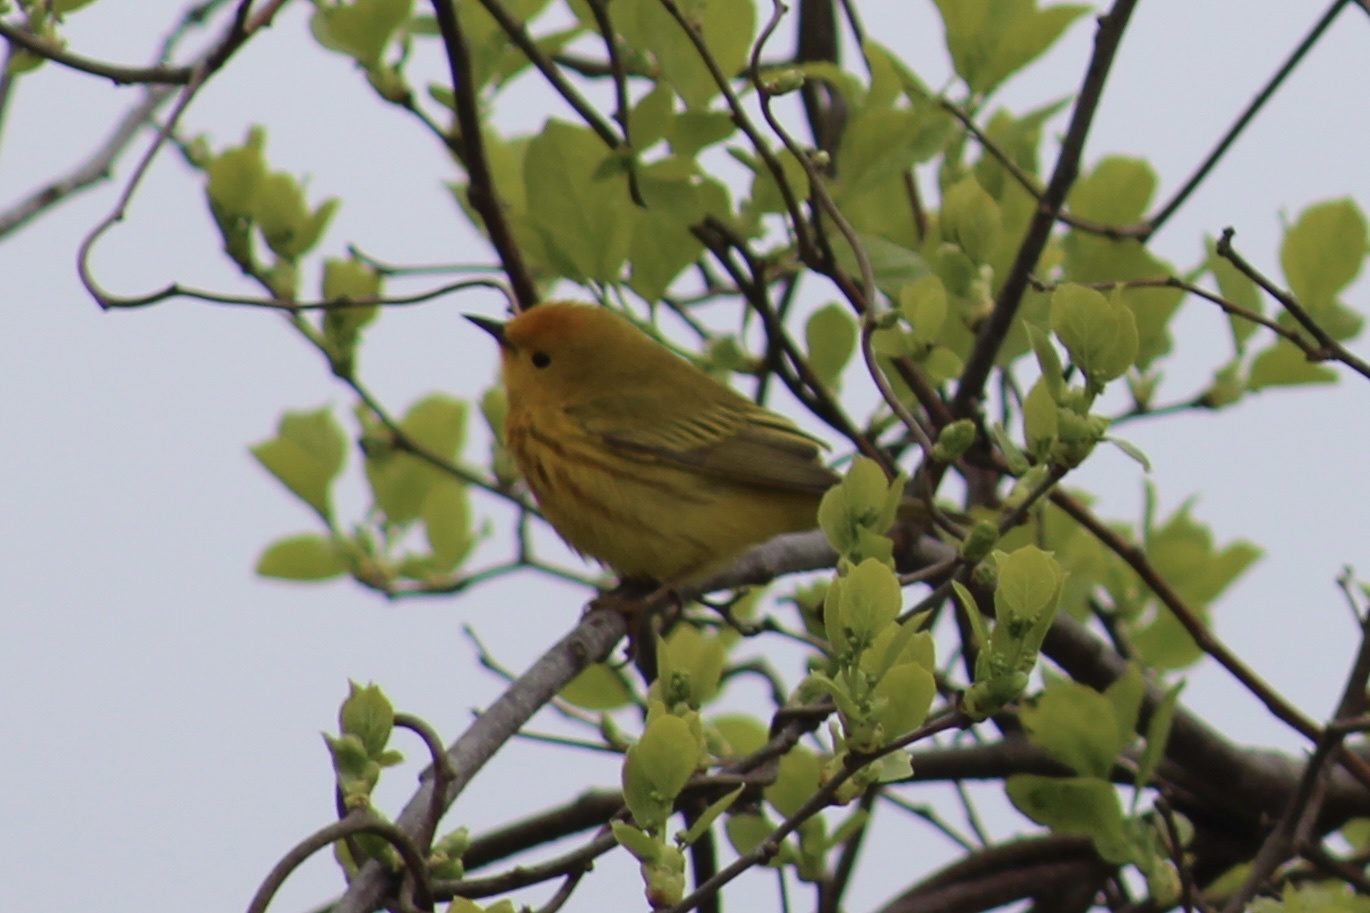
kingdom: Animalia
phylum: Chordata
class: Aves
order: Passeriformes
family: Parulidae
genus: Setophaga
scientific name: Setophaga petechia
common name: Yellow warbler
